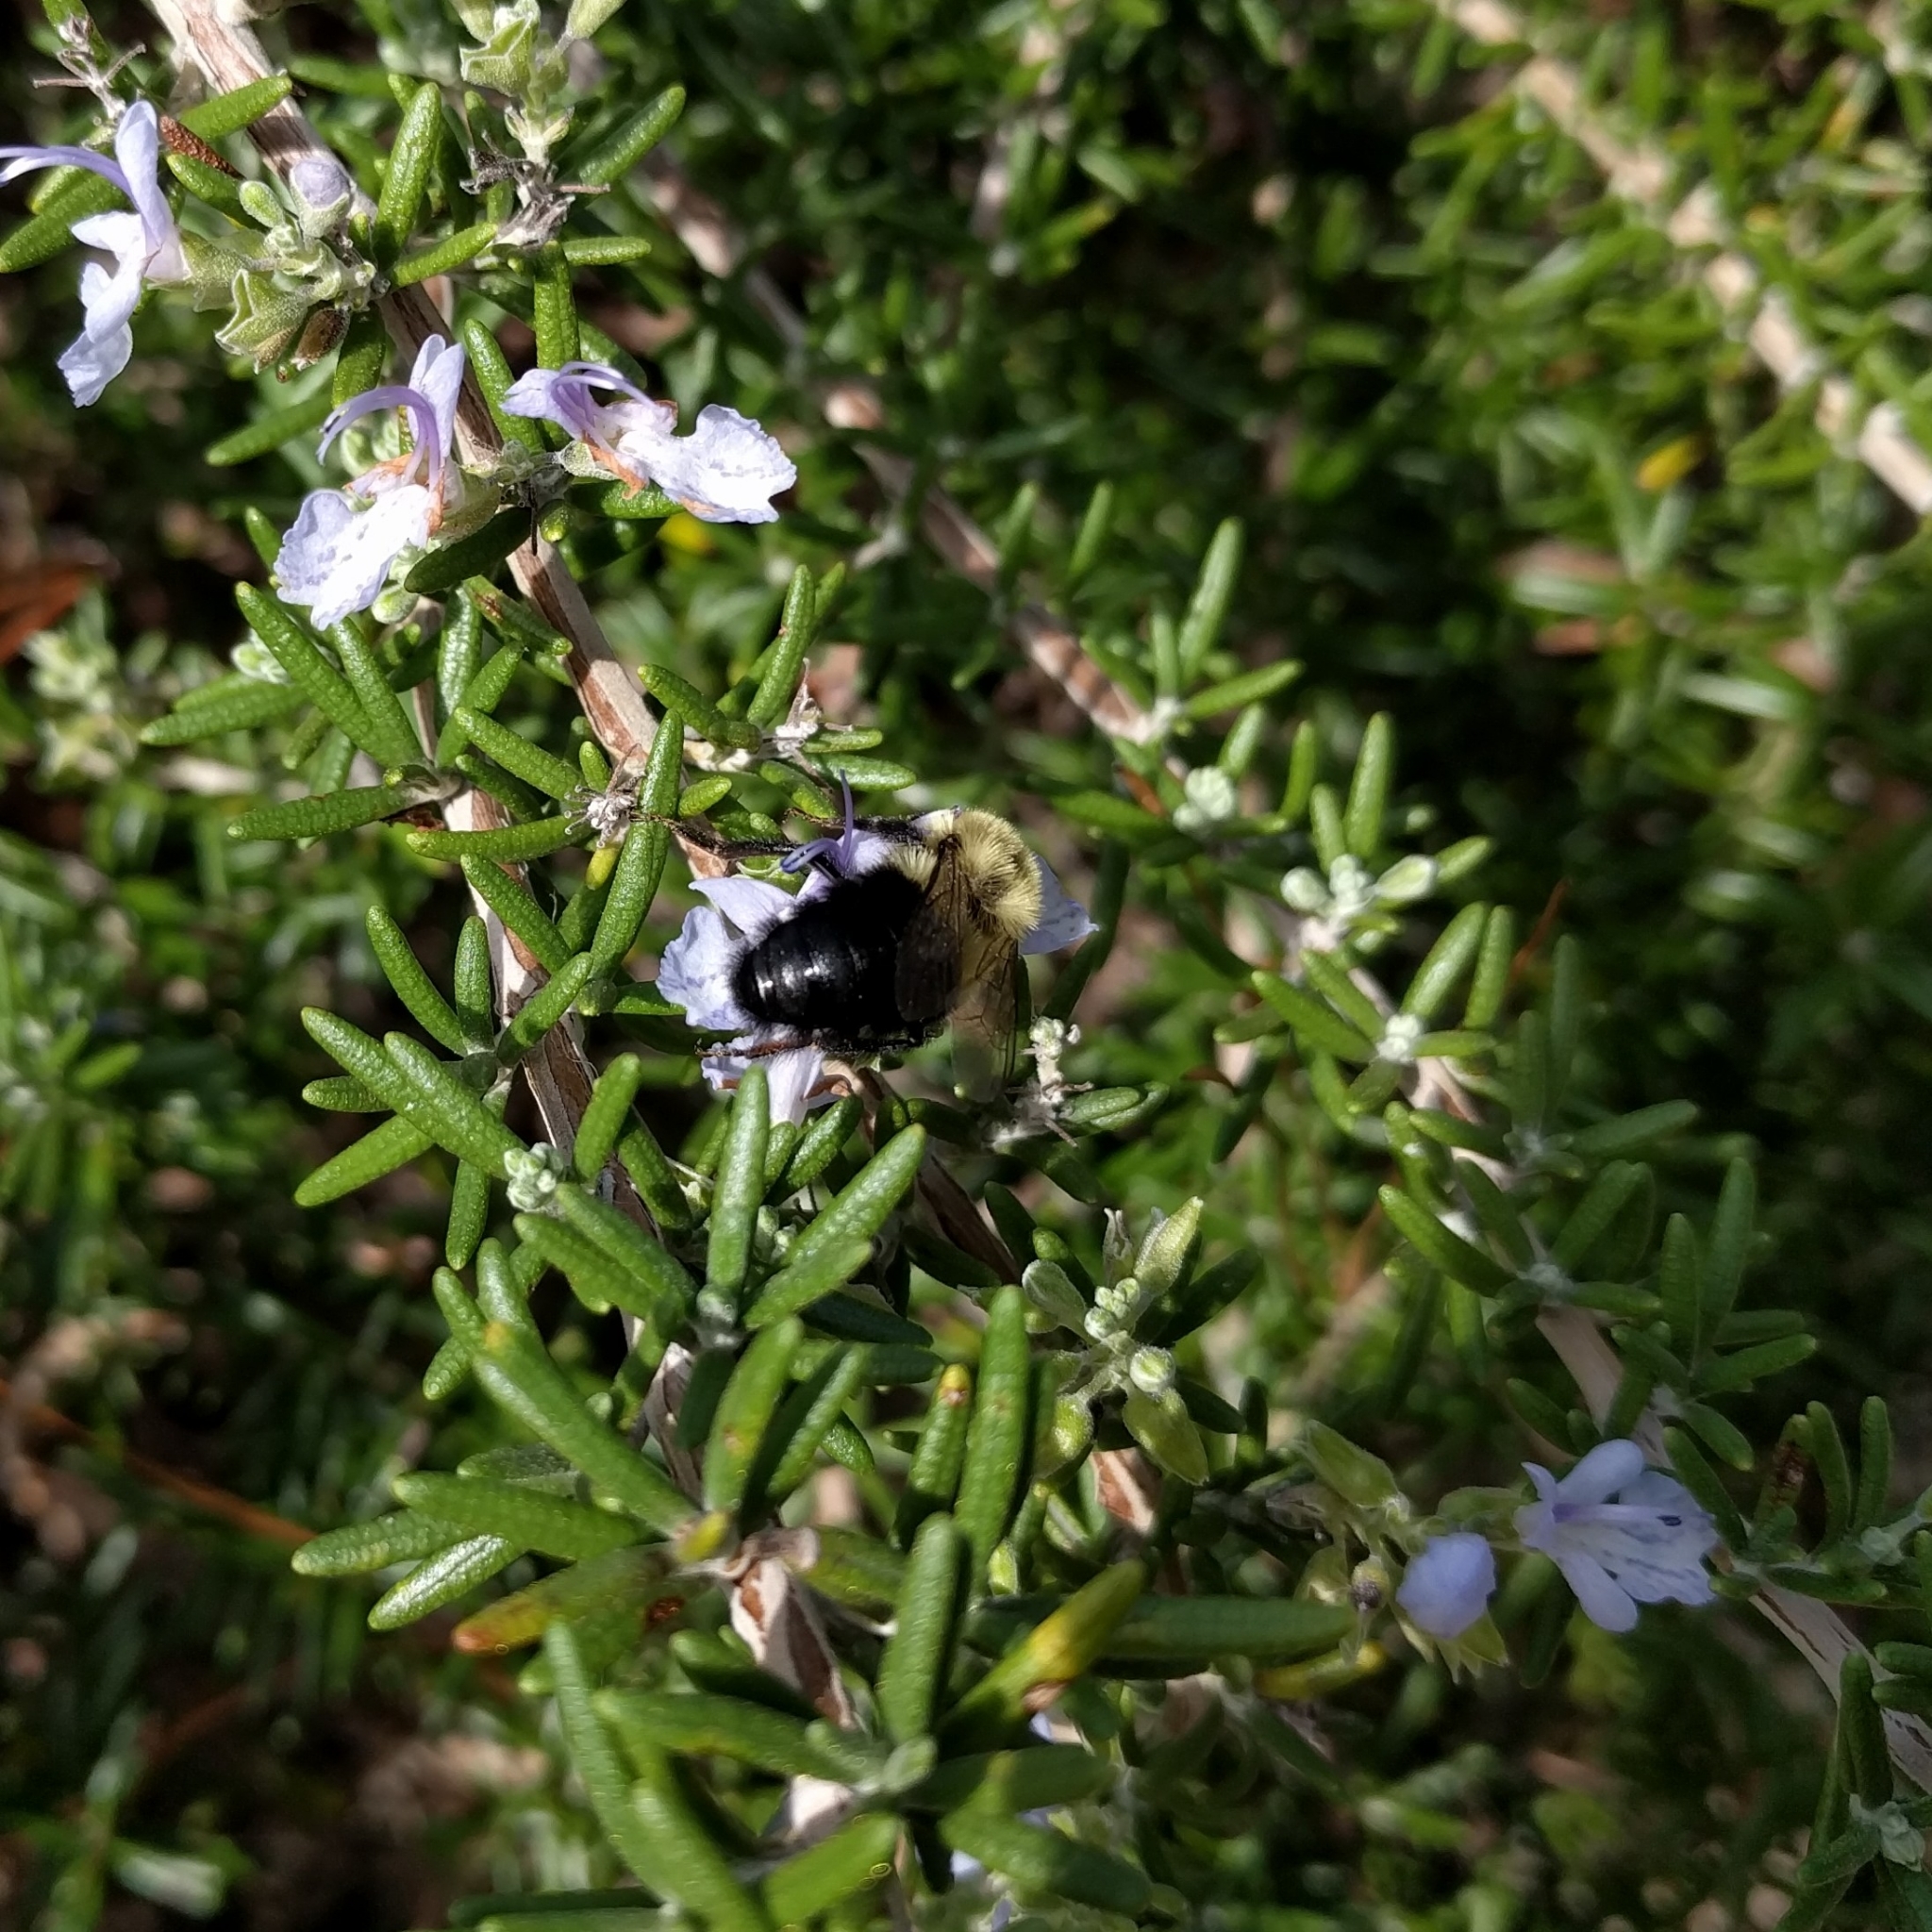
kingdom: Animalia
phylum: Arthropoda
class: Insecta
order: Hymenoptera
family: Apidae
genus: Bombus
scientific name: Bombus impatiens
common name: Common eastern bumble bee
